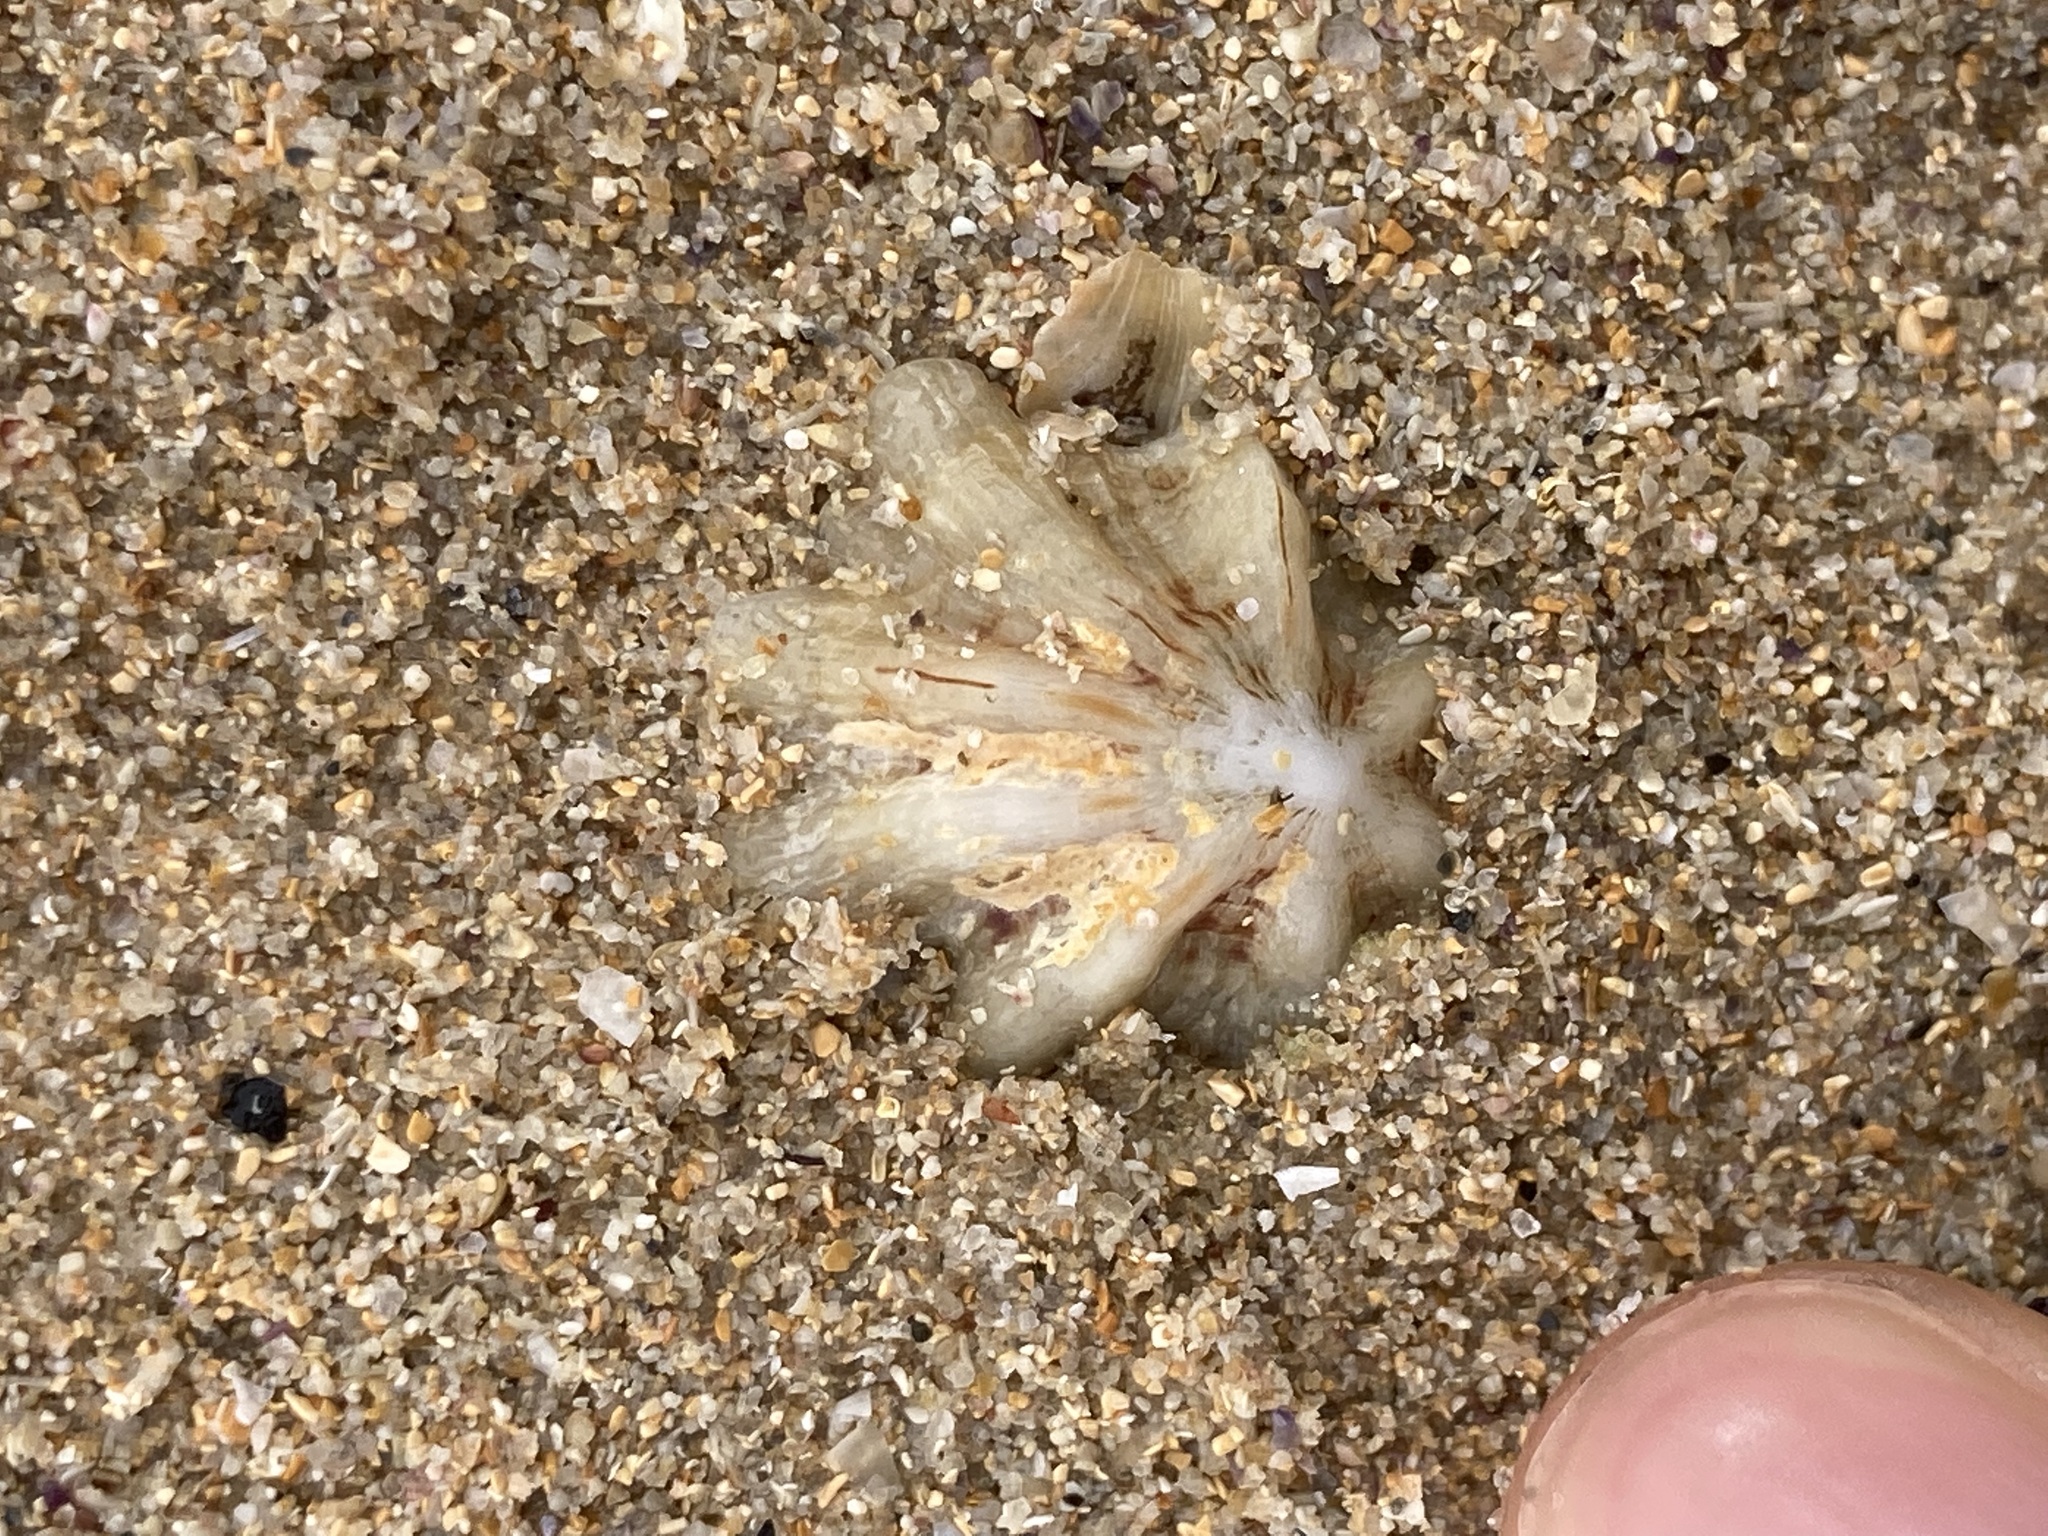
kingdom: Animalia
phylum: Mollusca
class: Gastropoda
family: Patellidae
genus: Scutellastra
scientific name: Scutellastra chapmani
